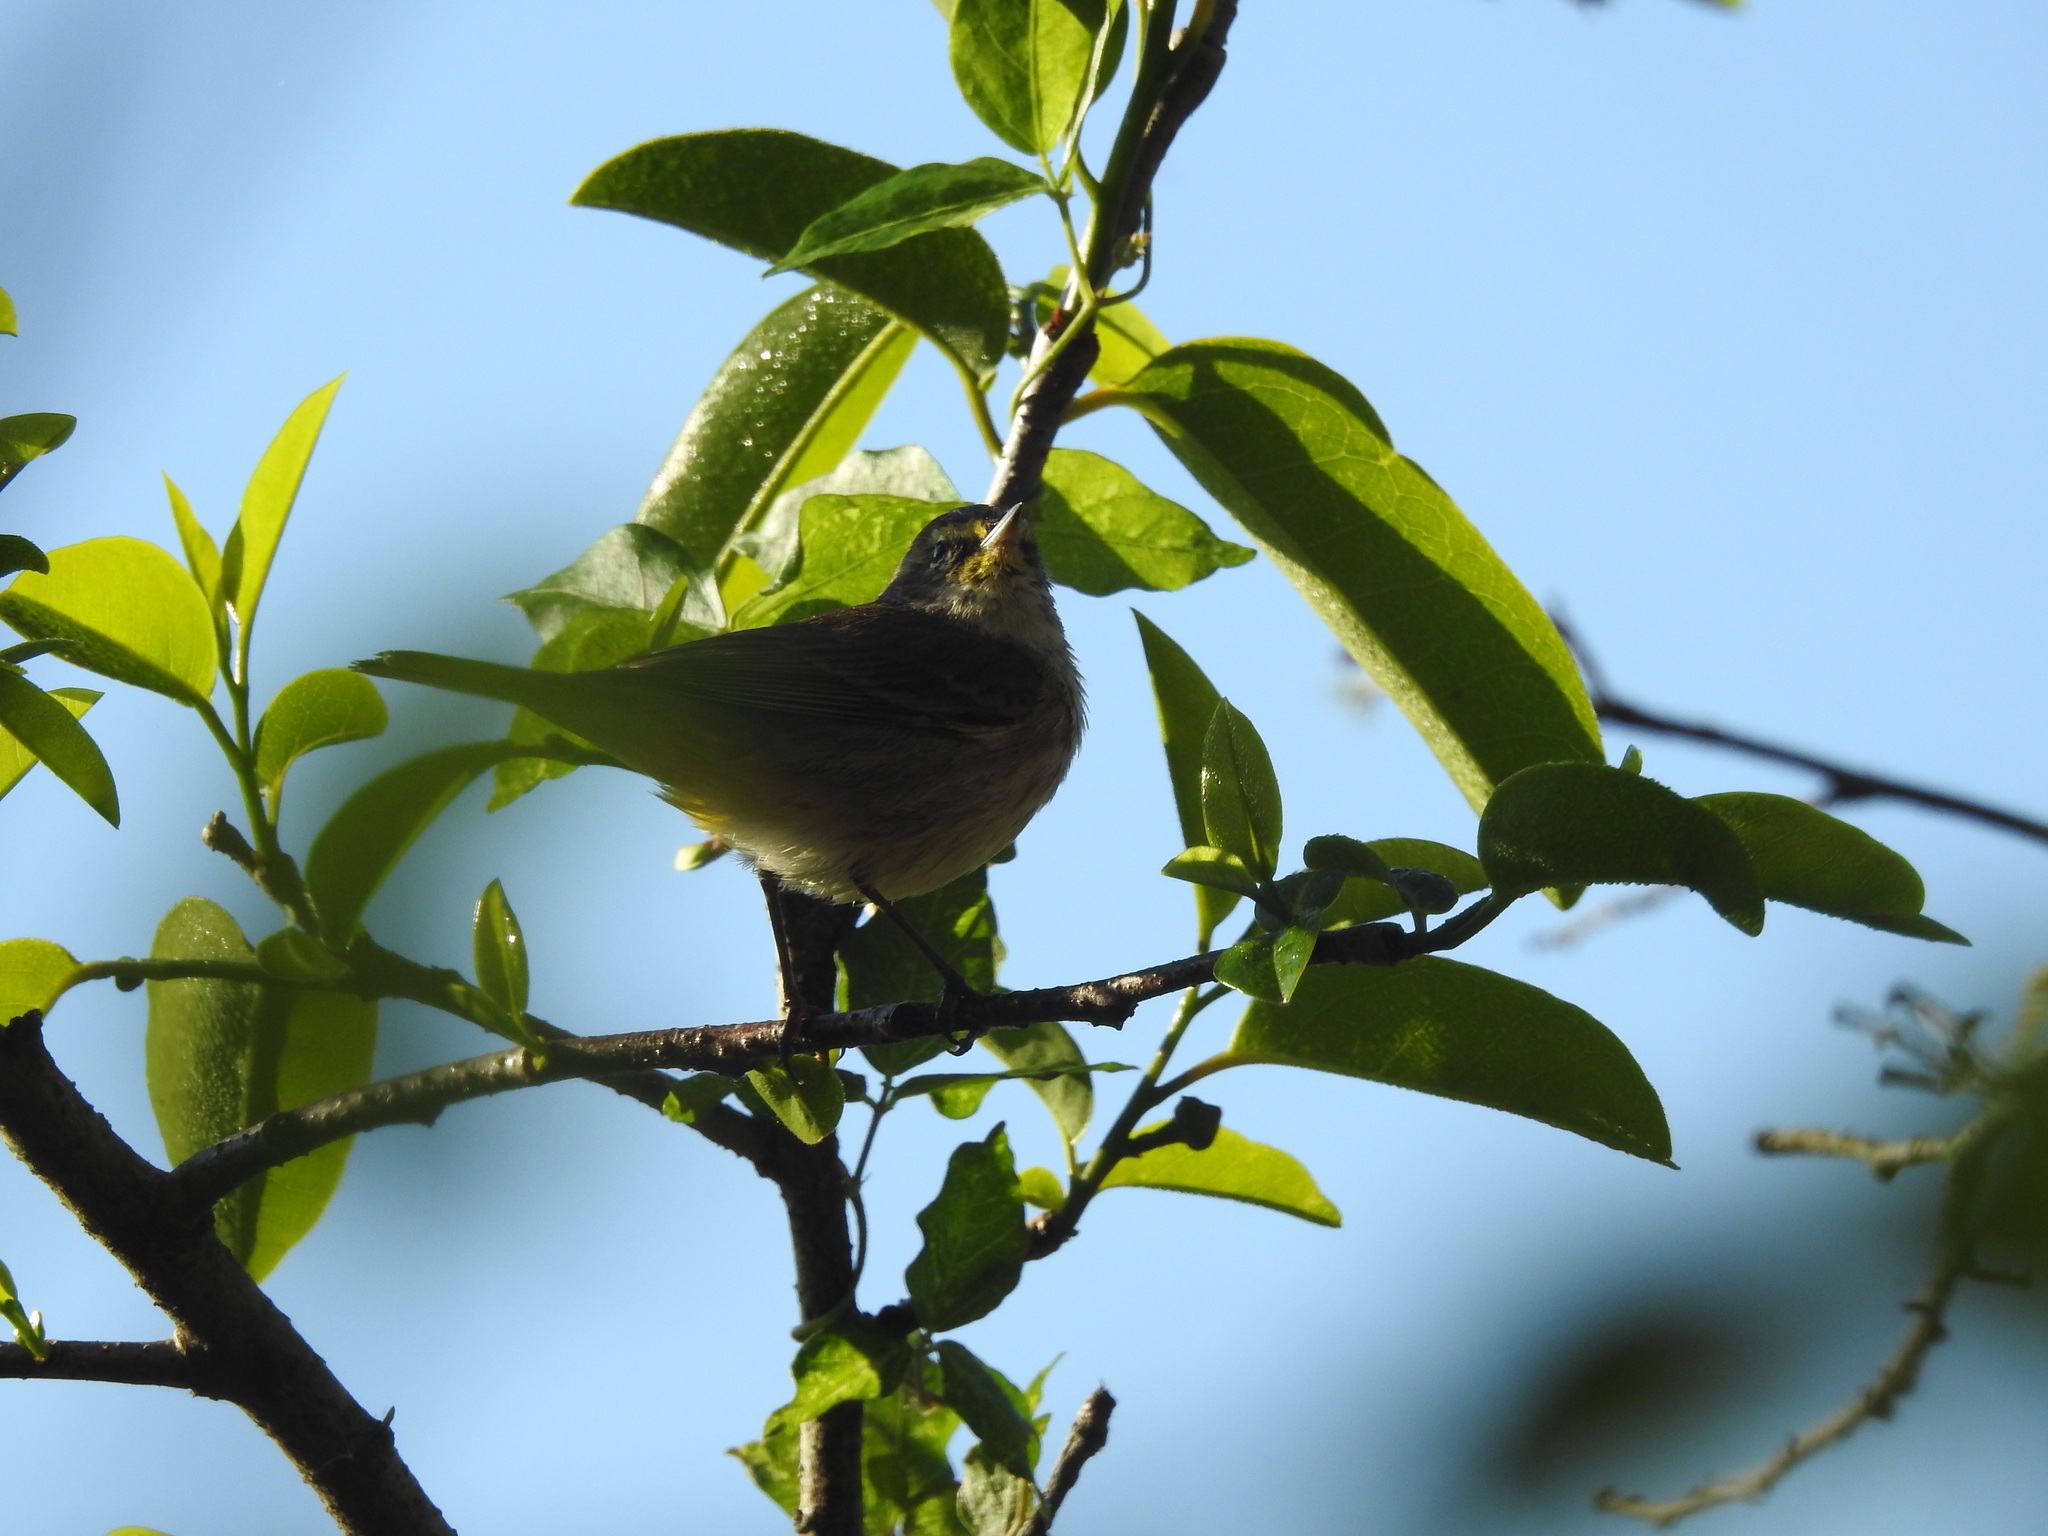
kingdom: Animalia
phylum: Chordata
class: Aves
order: Passeriformes
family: Parulidae
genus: Setophaga
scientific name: Setophaga palmarum
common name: Palm warbler
